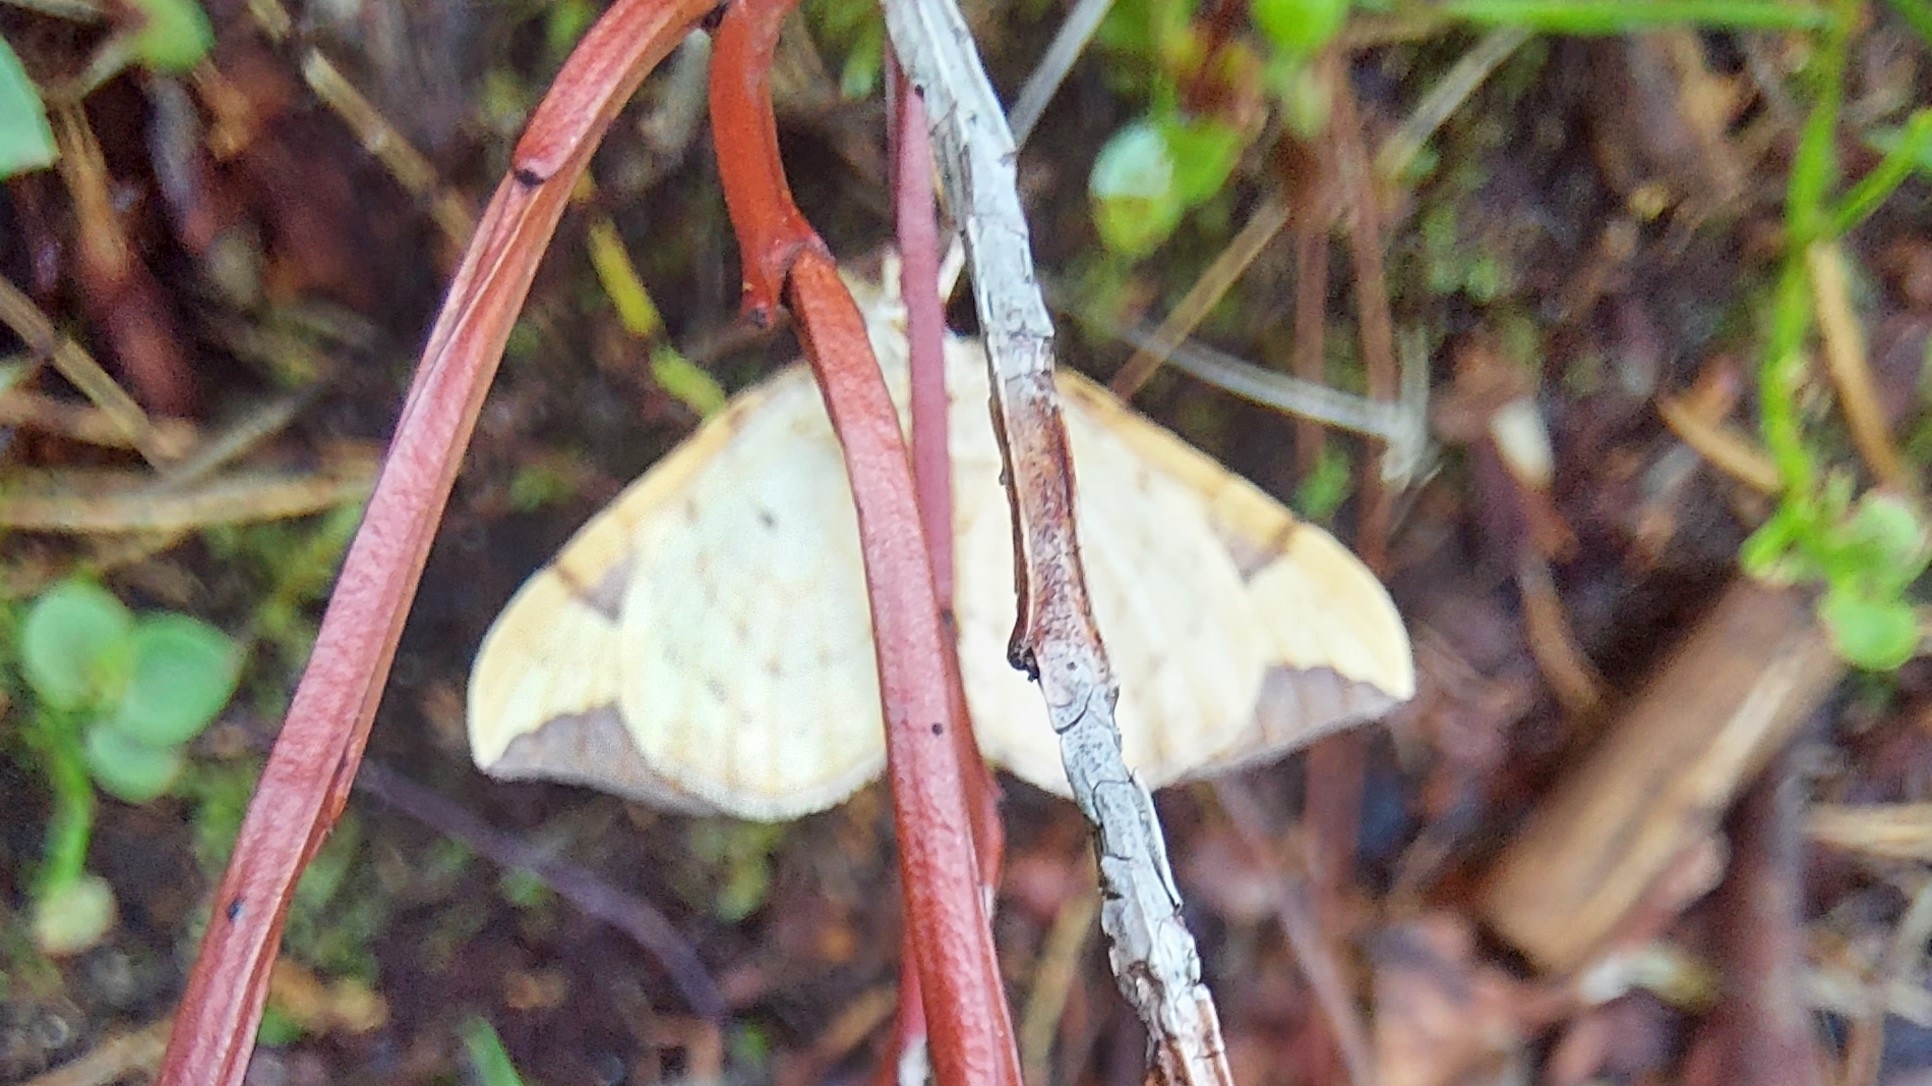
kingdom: Animalia
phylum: Arthropoda
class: Insecta
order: Lepidoptera
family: Geometridae
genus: Eulithis
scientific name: Eulithis populata
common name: Northern spinach
